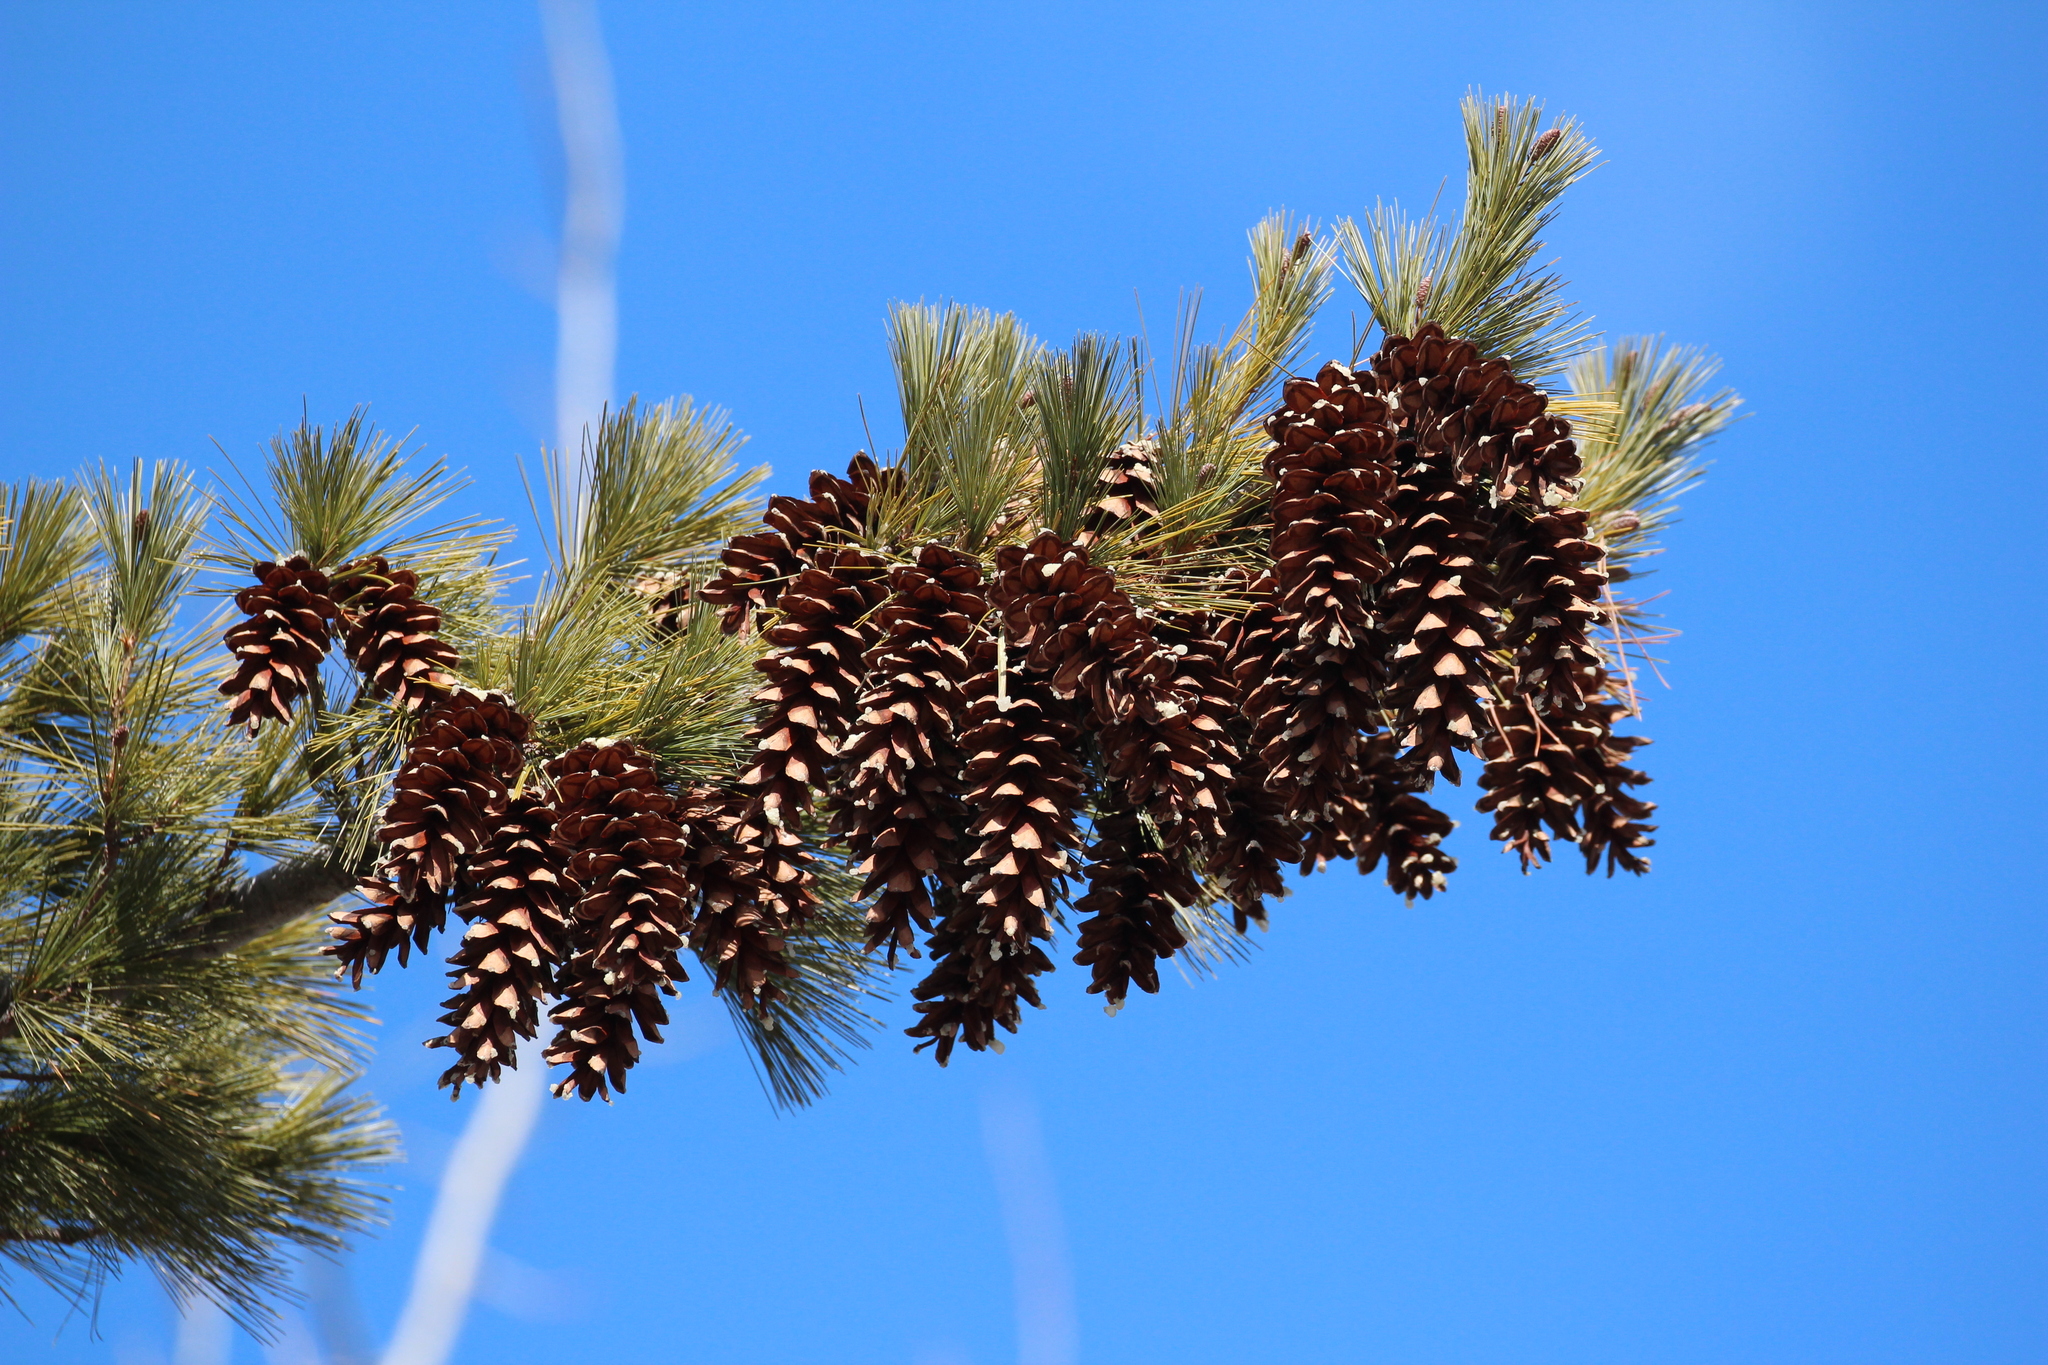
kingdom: Plantae
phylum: Tracheophyta
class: Pinopsida
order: Pinales
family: Pinaceae
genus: Pinus
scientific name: Pinus strobus
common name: Weymouth pine
